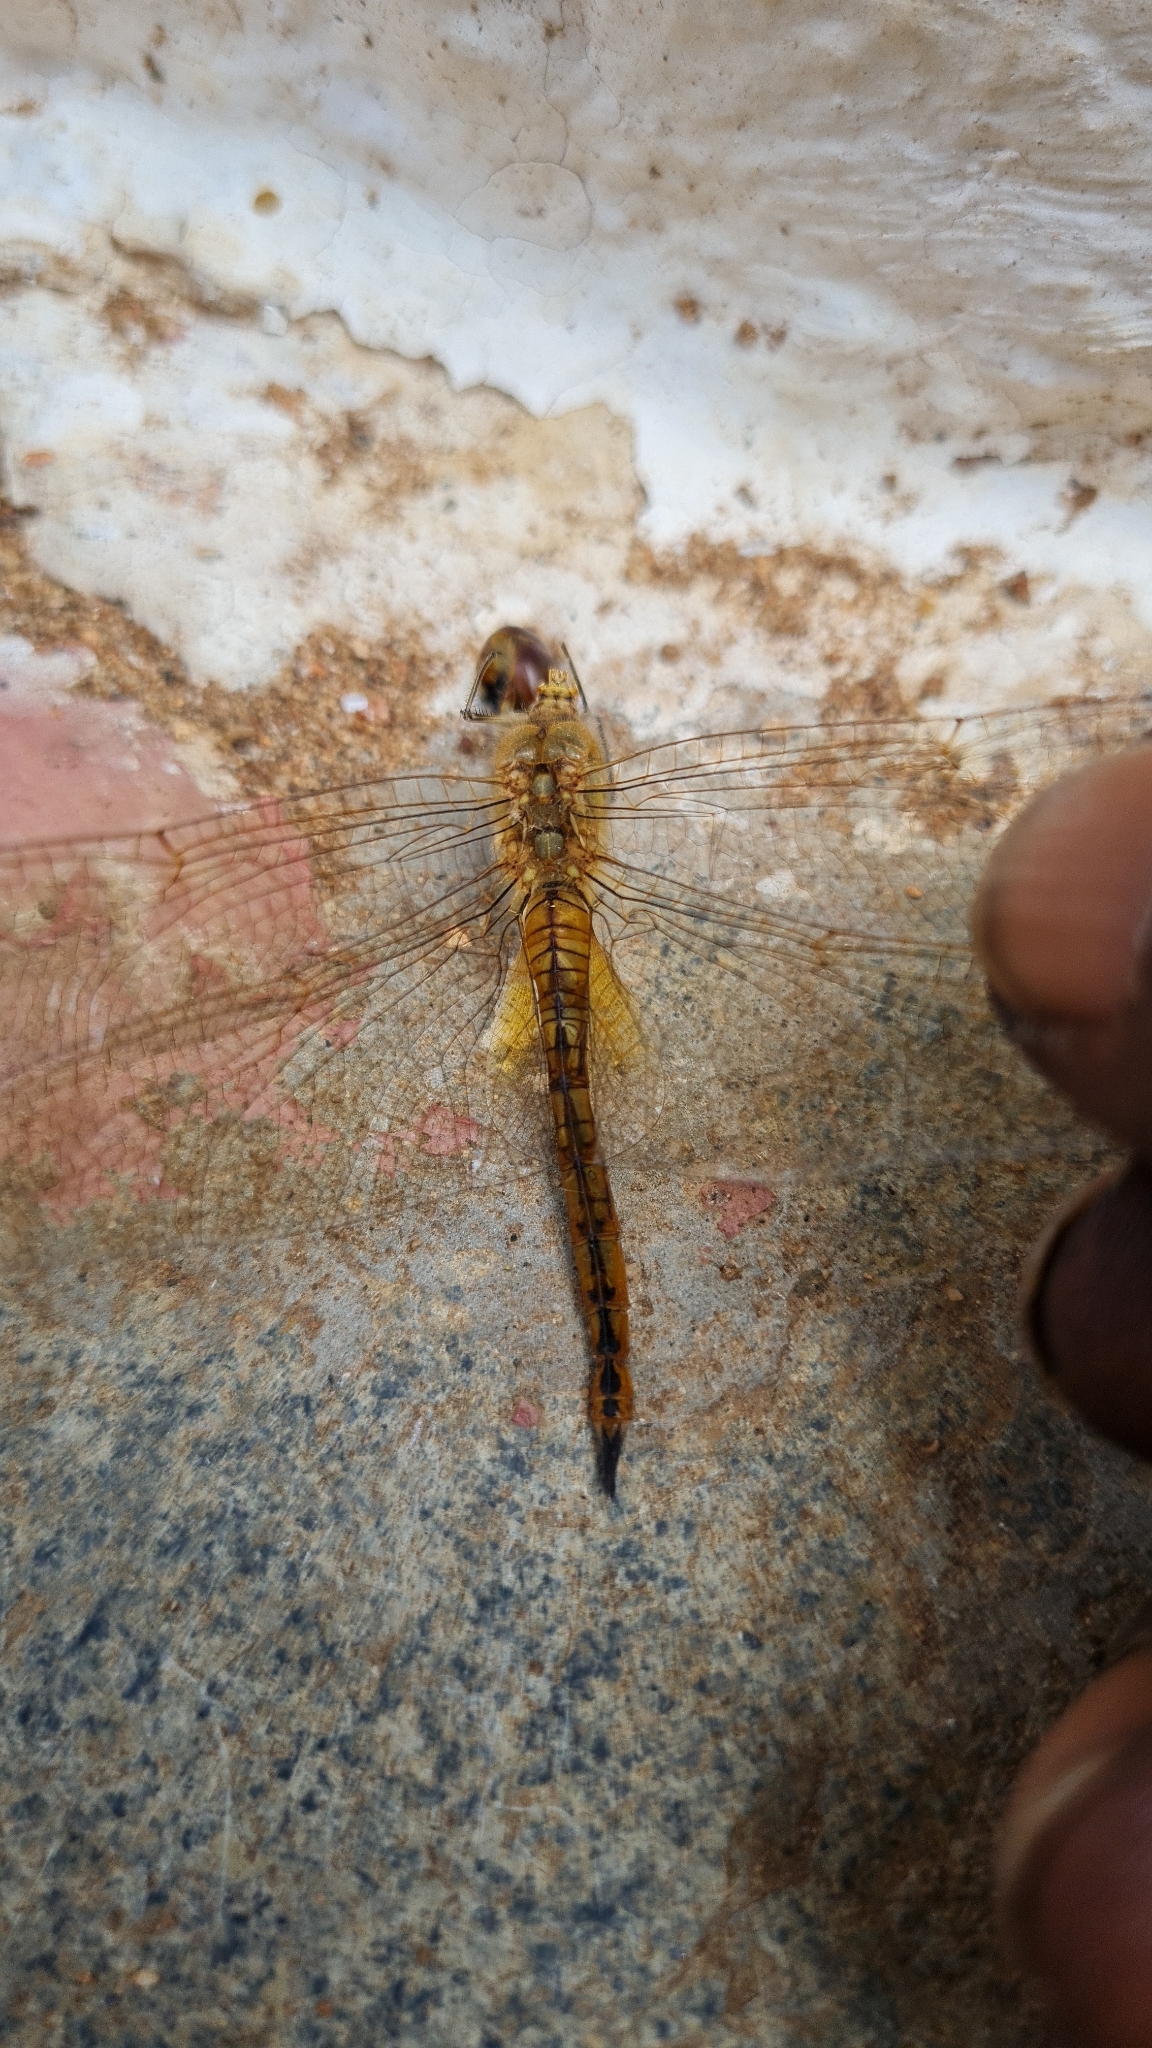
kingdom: Animalia
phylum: Arthropoda
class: Insecta
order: Odonata
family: Libellulidae
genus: Pantala
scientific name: Pantala flavescens
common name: Wandering glider
